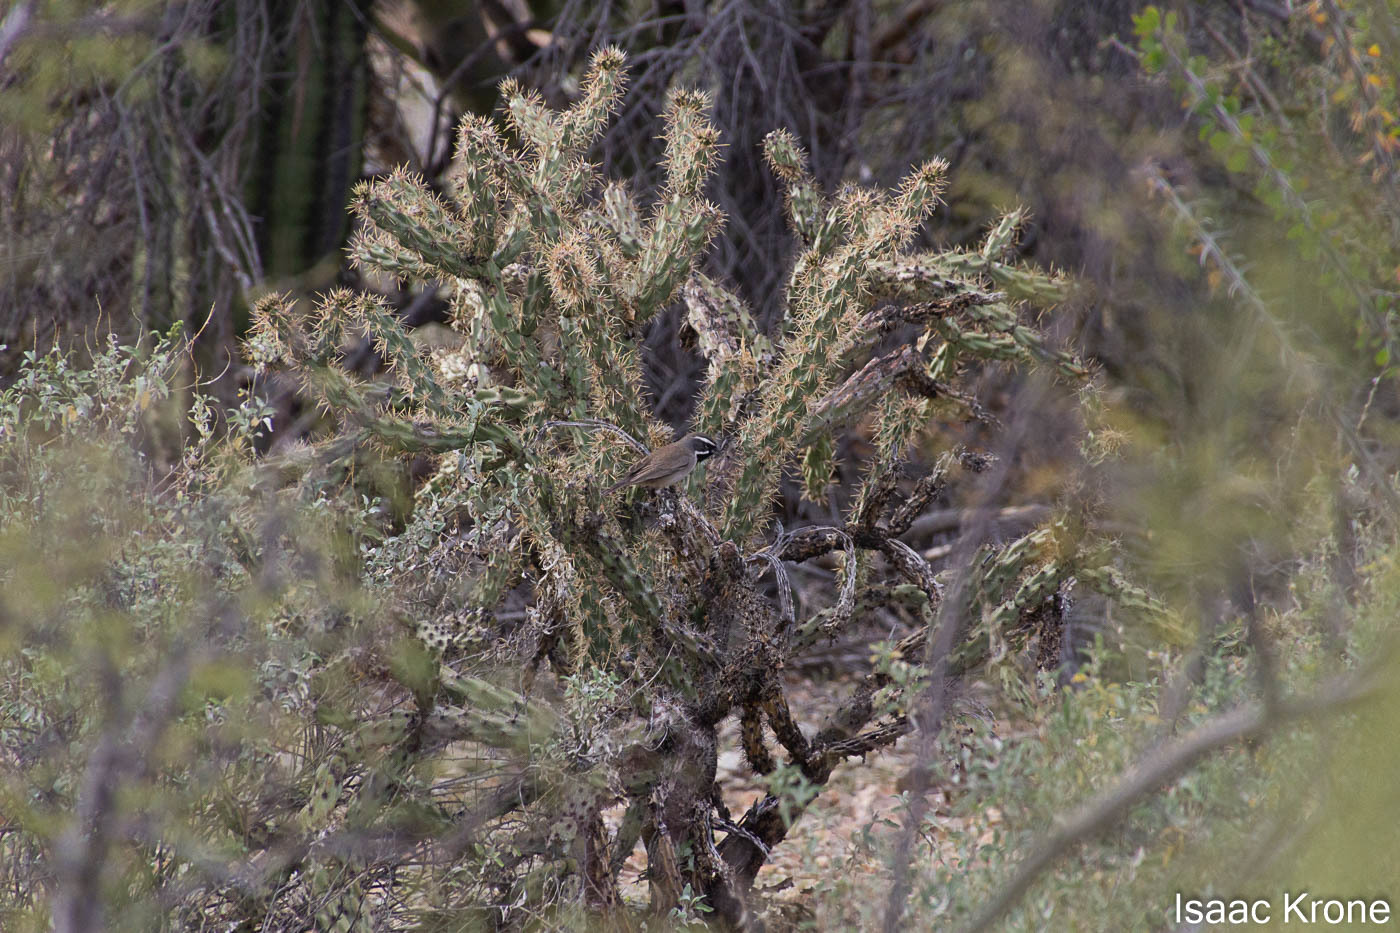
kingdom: Animalia
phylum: Chordata
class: Aves
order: Passeriformes
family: Passerellidae
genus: Amphispiza
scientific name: Amphispiza bilineata
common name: Black-throated sparrow
